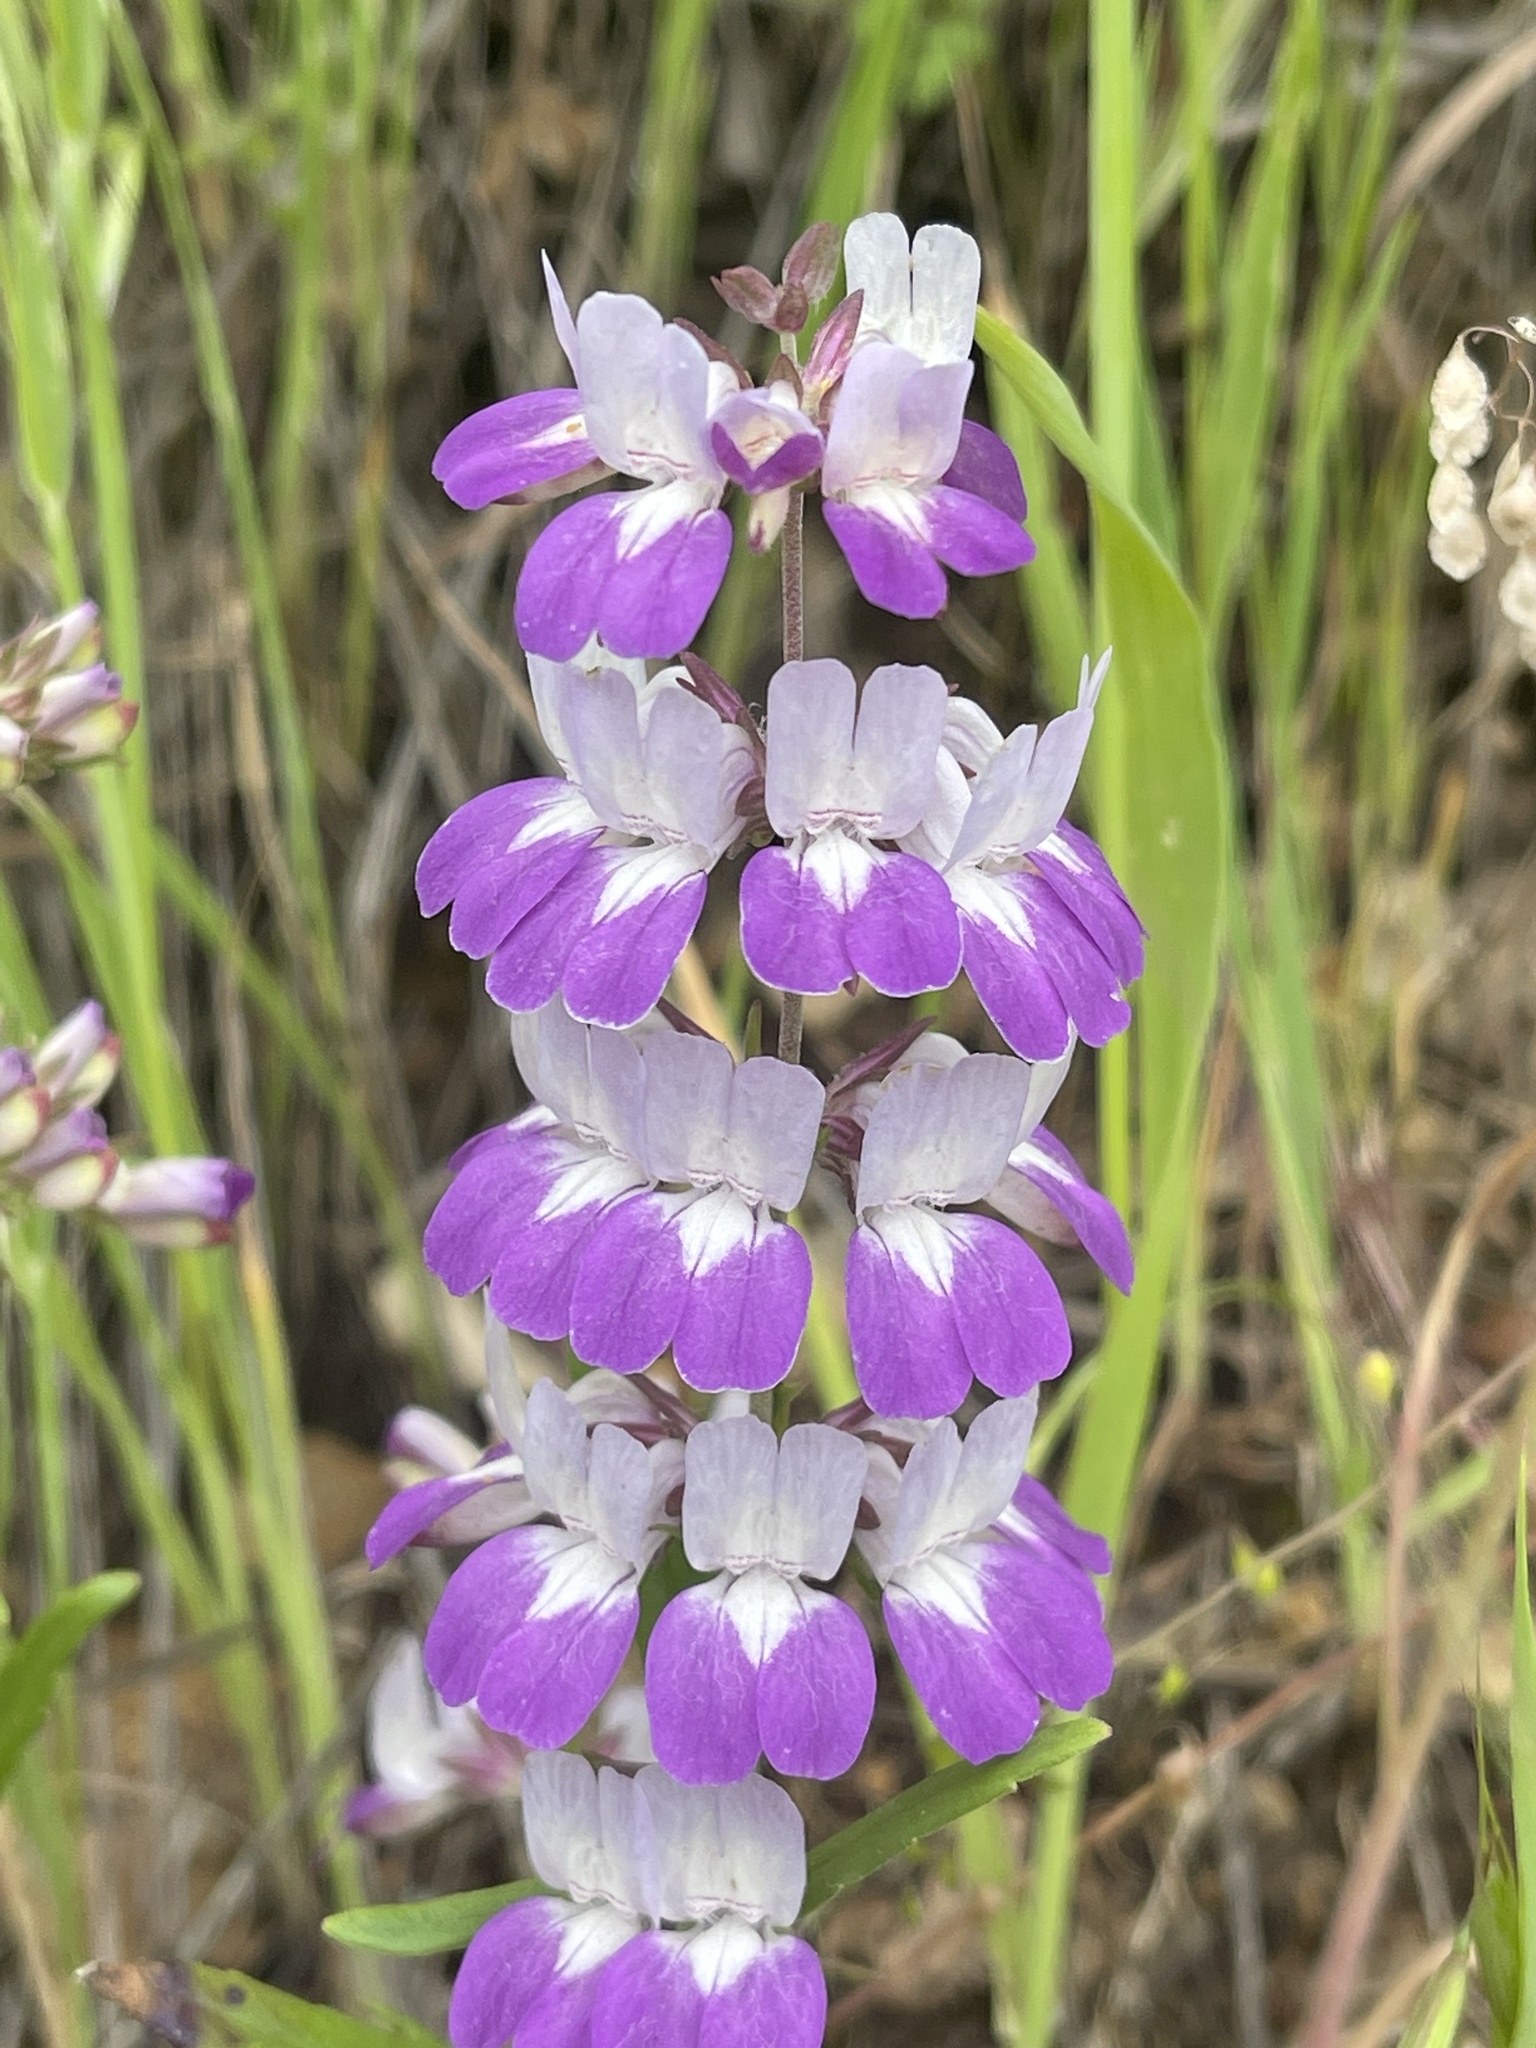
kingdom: Plantae
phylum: Tracheophyta
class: Magnoliopsida
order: Lamiales
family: Plantaginaceae
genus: Collinsia
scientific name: Collinsia heterophylla
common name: Chinese-houses
